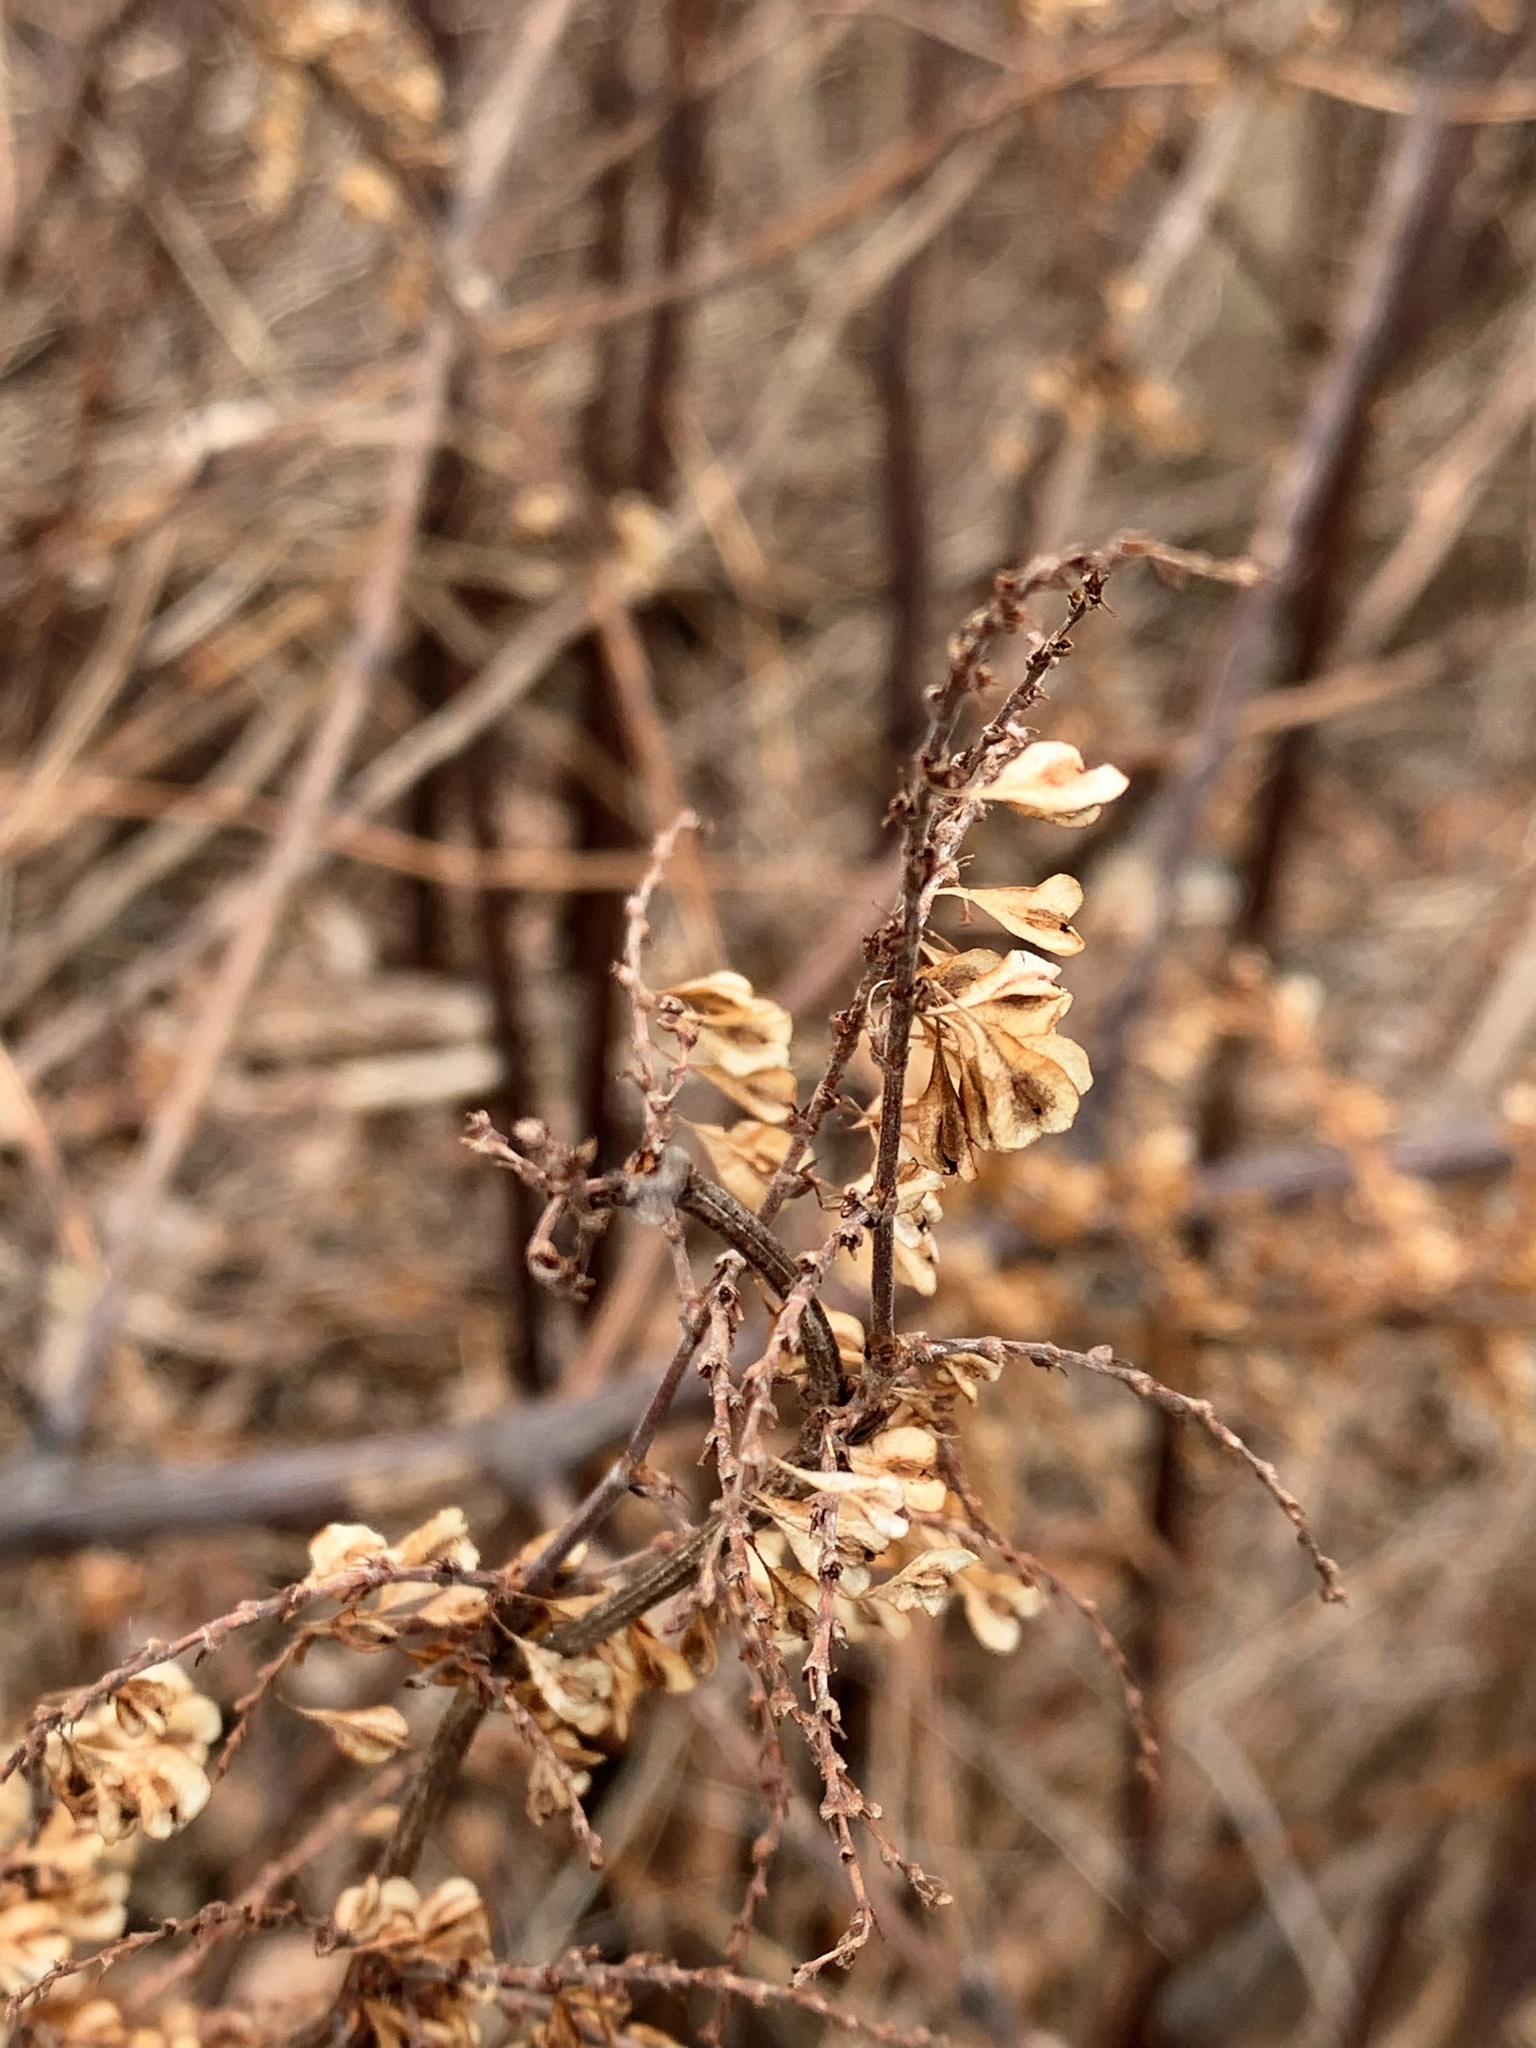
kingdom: Plantae
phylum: Tracheophyta
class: Magnoliopsida
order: Caryophyllales
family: Polygonaceae
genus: Reynoutria
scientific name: Reynoutria japonica
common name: Japanese knotweed
